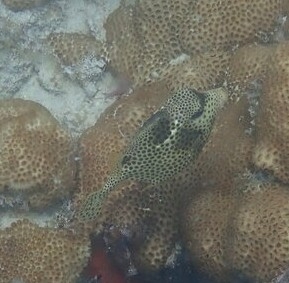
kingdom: Animalia
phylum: Chordata
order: Tetraodontiformes
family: Ostraciidae
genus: Lactophrys
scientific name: Lactophrys bicaudalis
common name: Spotted trunkfish
